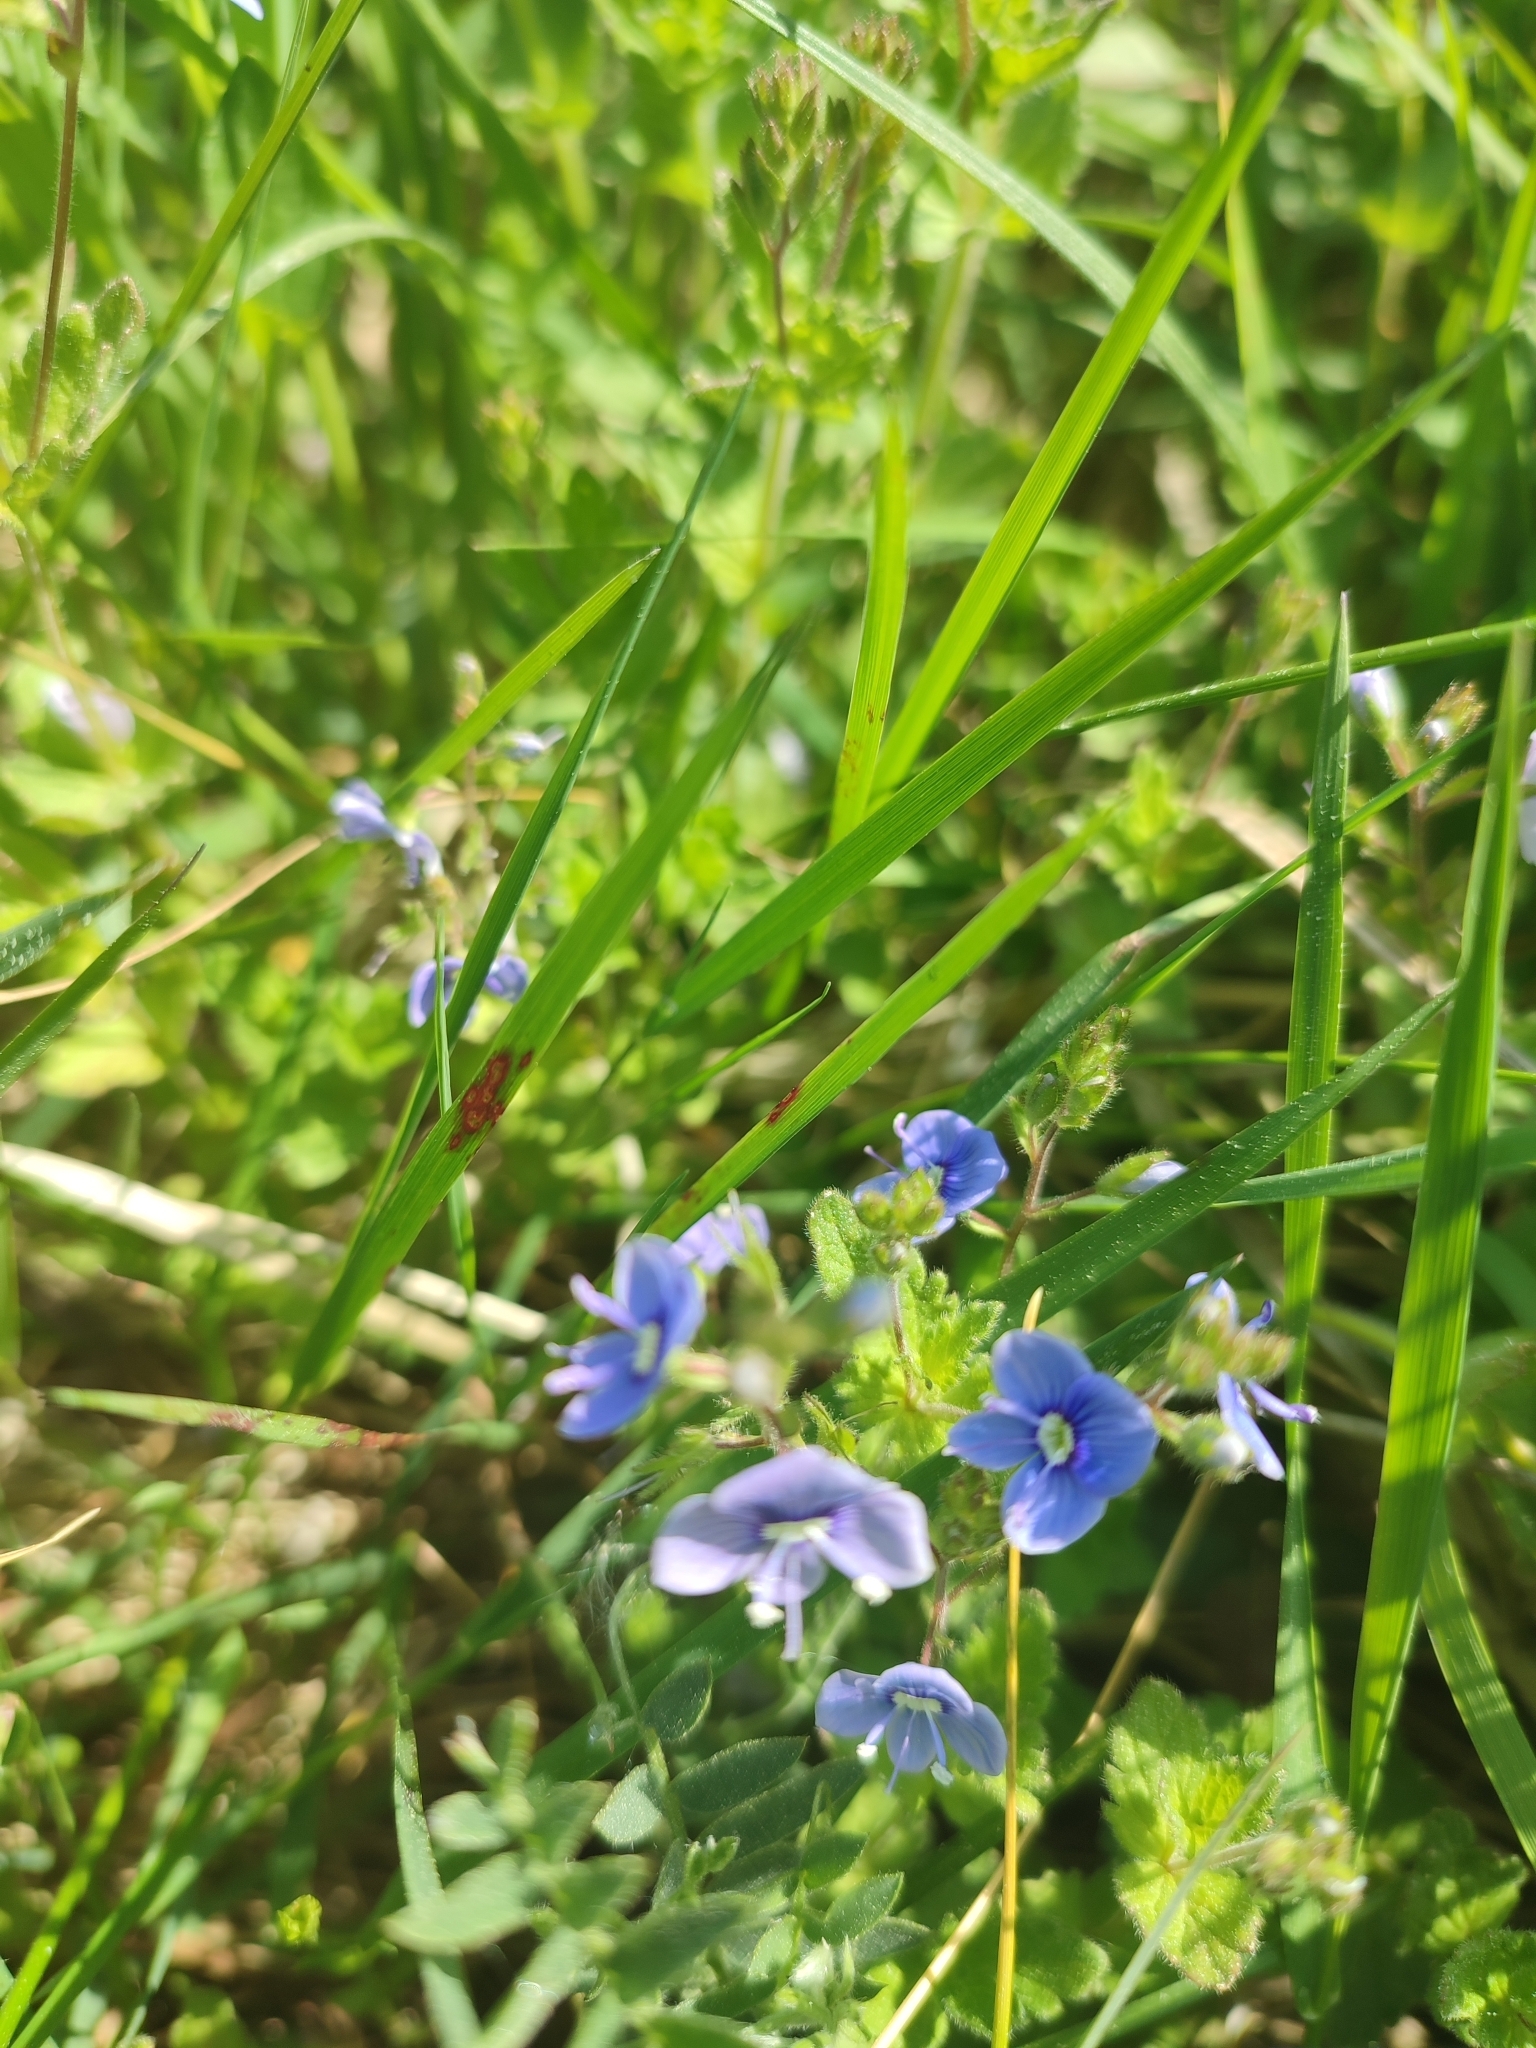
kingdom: Plantae
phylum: Tracheophyta
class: Magnoliopsida
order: Lamiales
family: Plantaginaceae
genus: Veronica
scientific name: Veronica chamaedrys
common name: Germander speedwell
